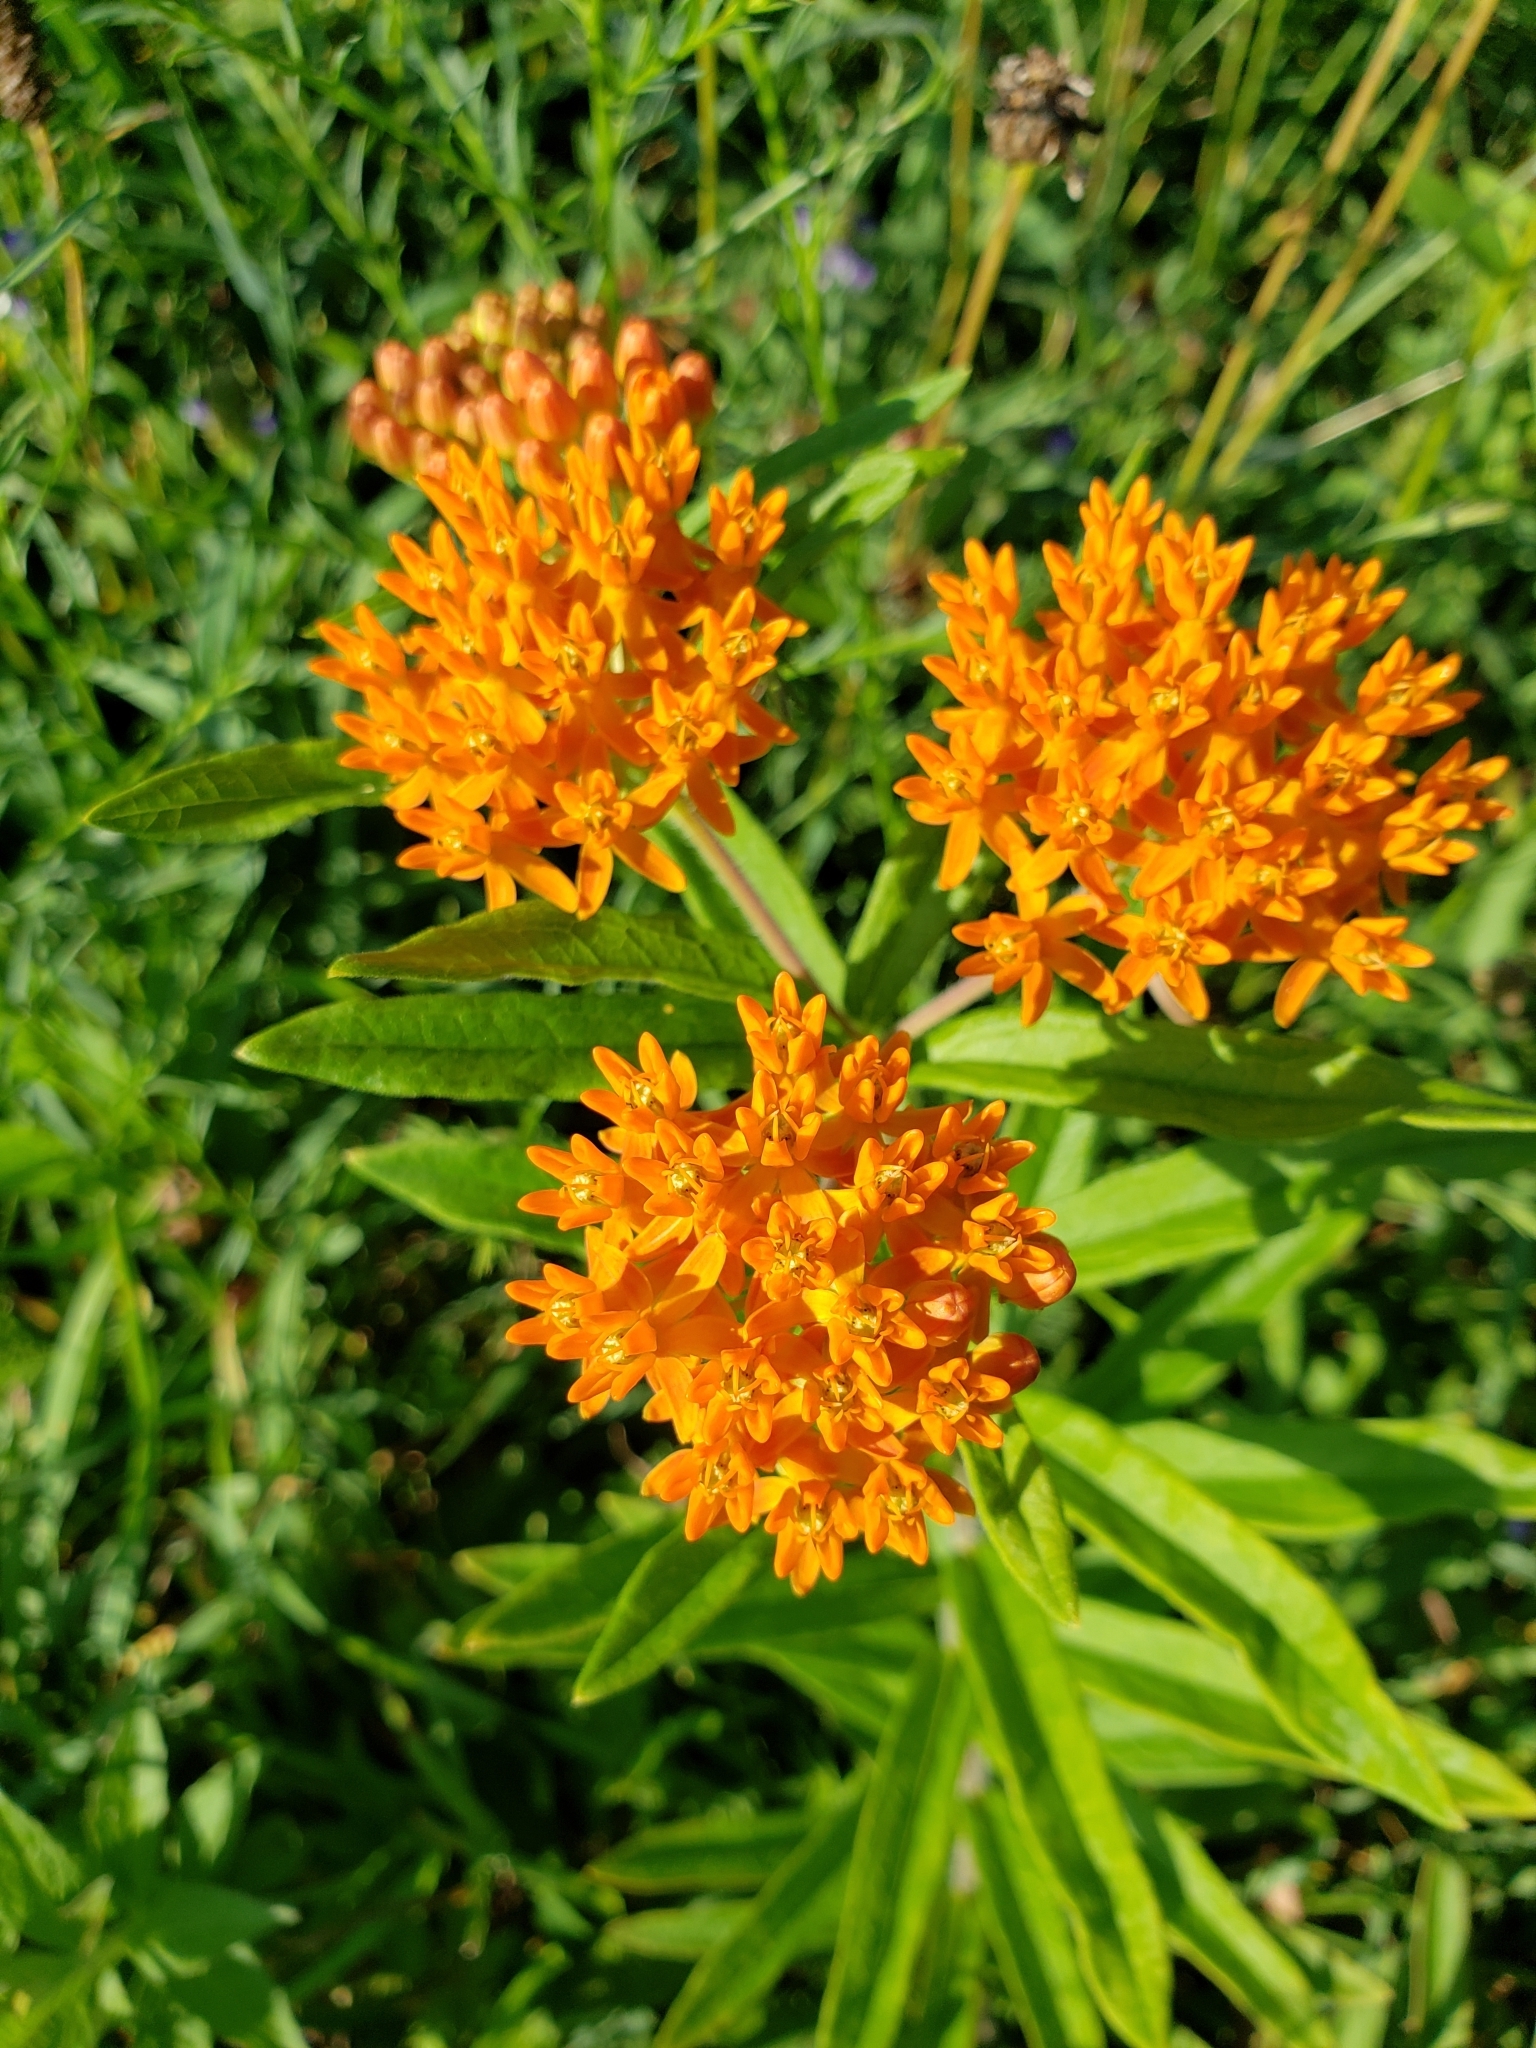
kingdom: Plantae
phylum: Tracheophyta
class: Magnoliopsida
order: Gentianales
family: Apocynaceae
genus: Asclepias
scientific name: Asclepias tuberosa
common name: Butterfly milkweed
